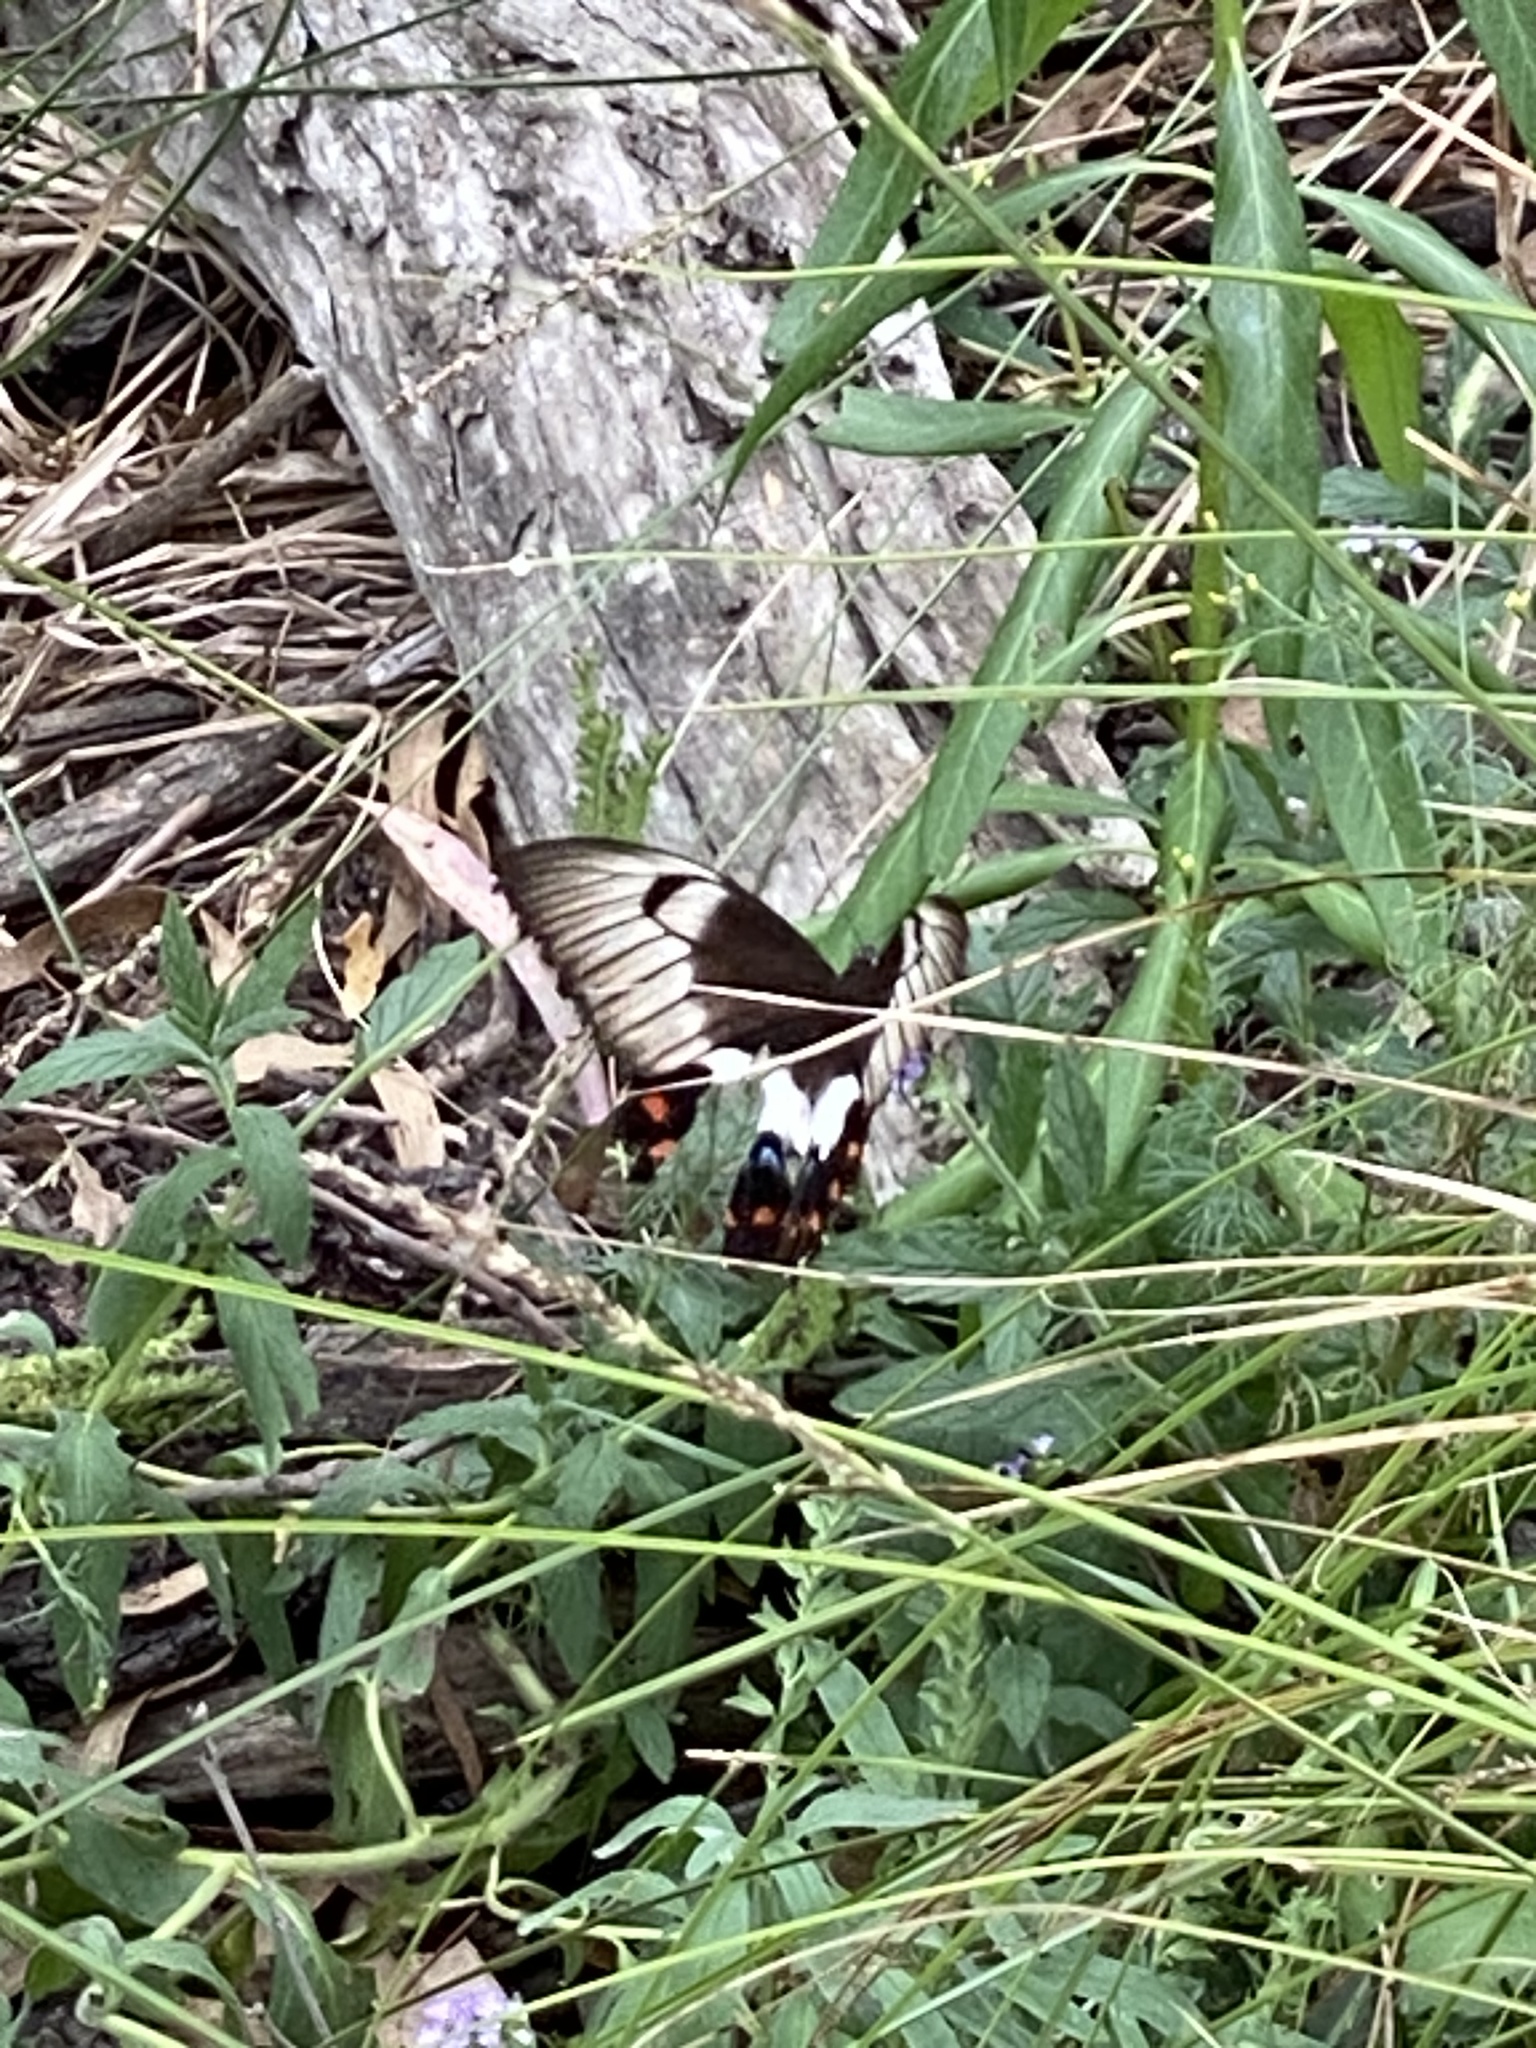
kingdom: Animalia
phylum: Arthropoda
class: Insecta
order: Lepidoptera
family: Papilionidae
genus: Papilio
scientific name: Papilio aegeus
